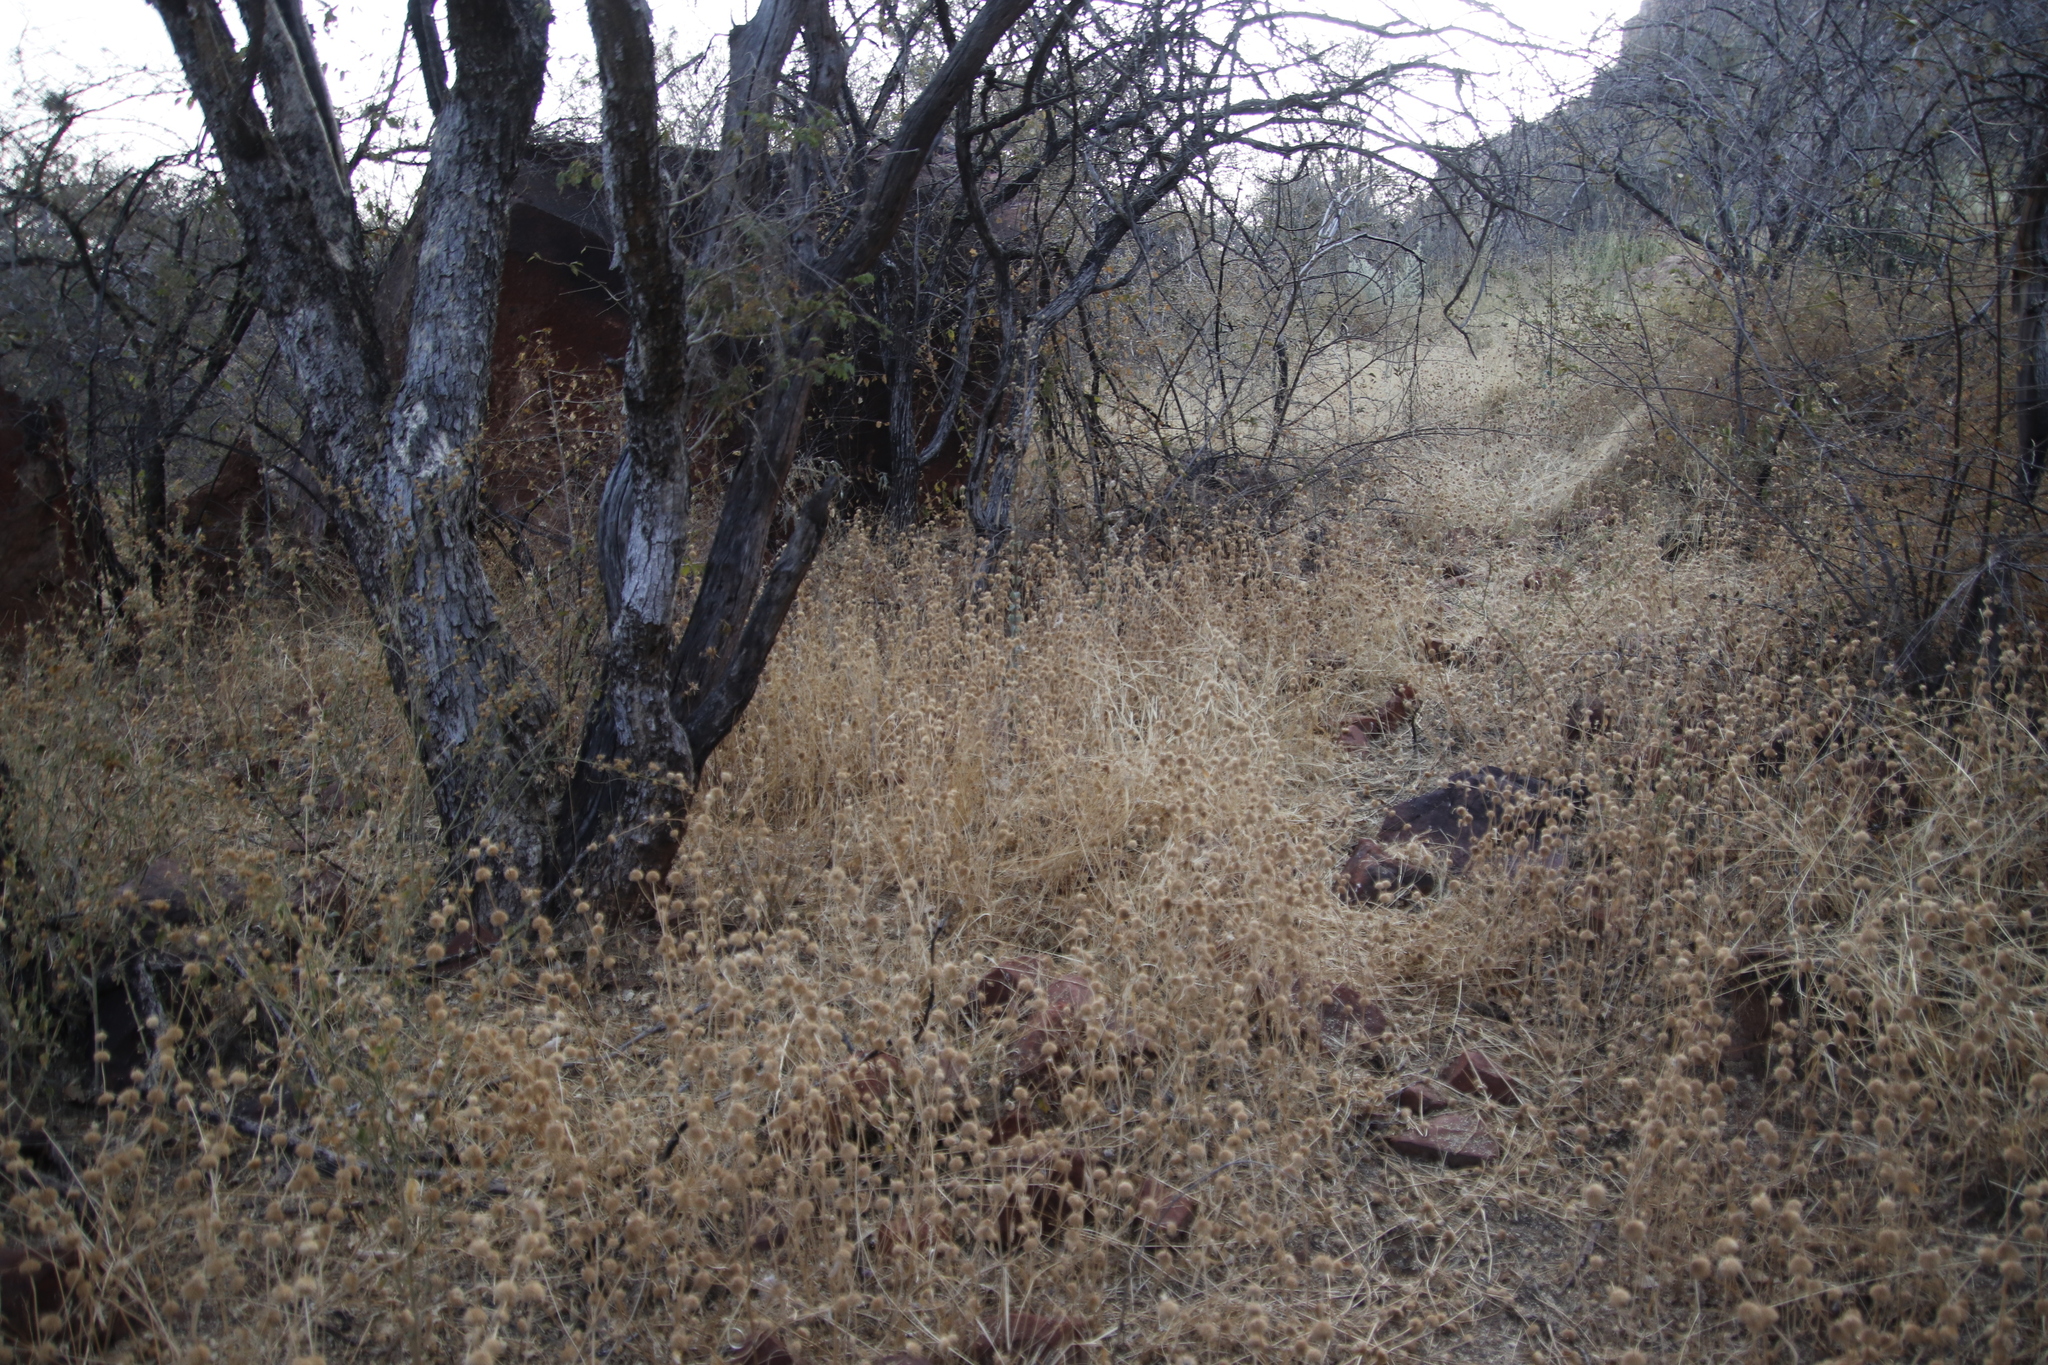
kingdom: Plantae
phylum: Tracheophyta
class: Magnoliopsida
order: Fabales
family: Fabaceae
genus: Dichrostachys
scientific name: Dichrostachys cinerea
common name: Sicklebush
